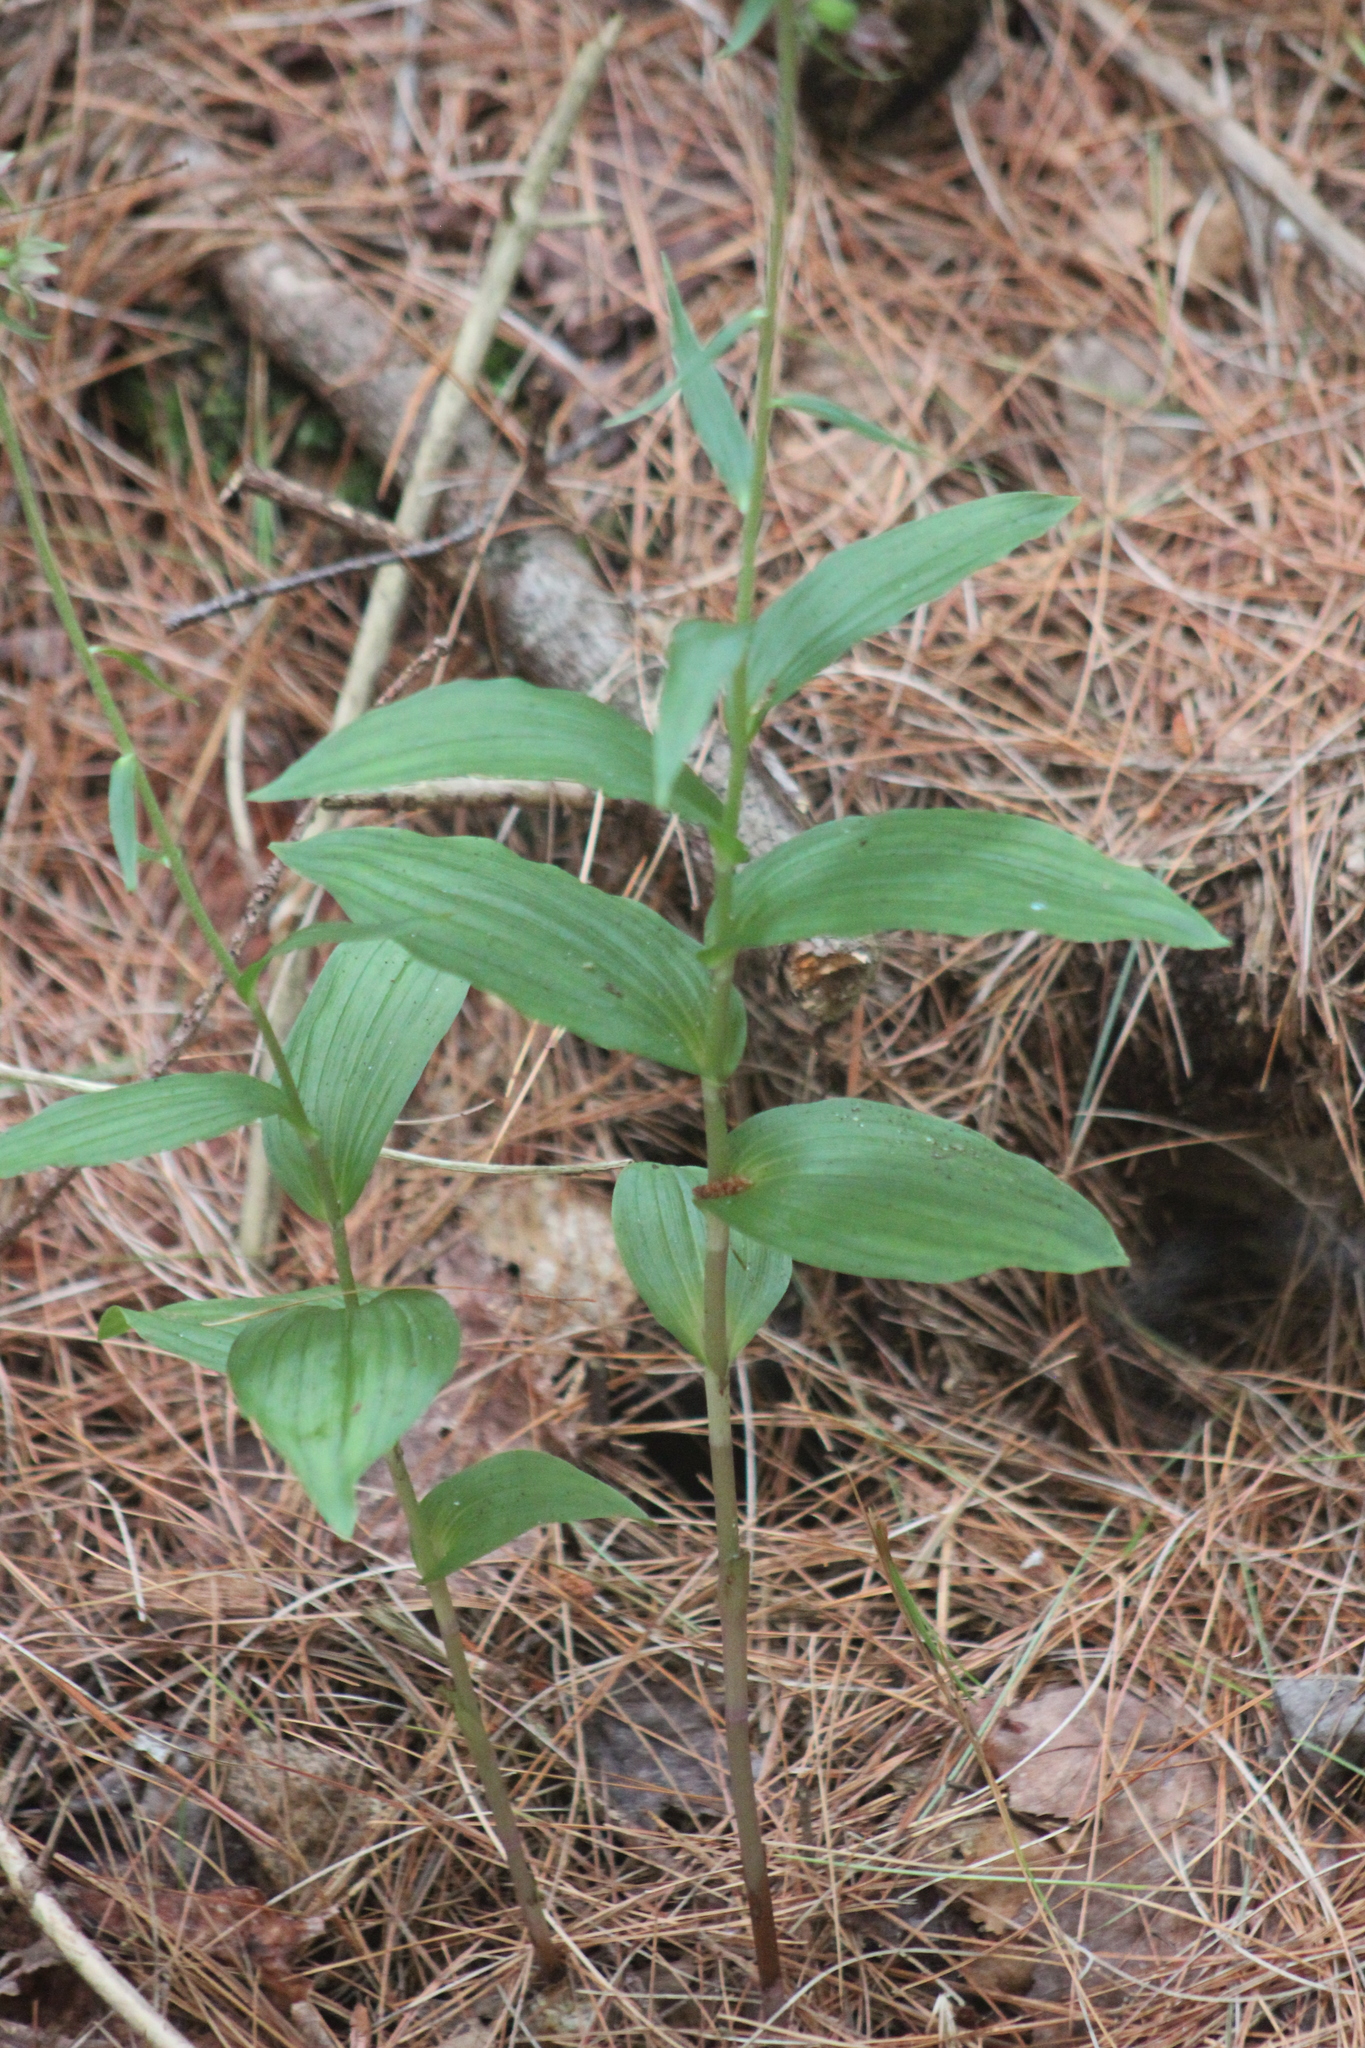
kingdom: Plantae
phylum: Tracheophyta
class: Liliopsida
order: Asparagales
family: Orchidaceae
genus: Epipactis
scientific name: Epipactis helleborine
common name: Broad-leaved helleborine
